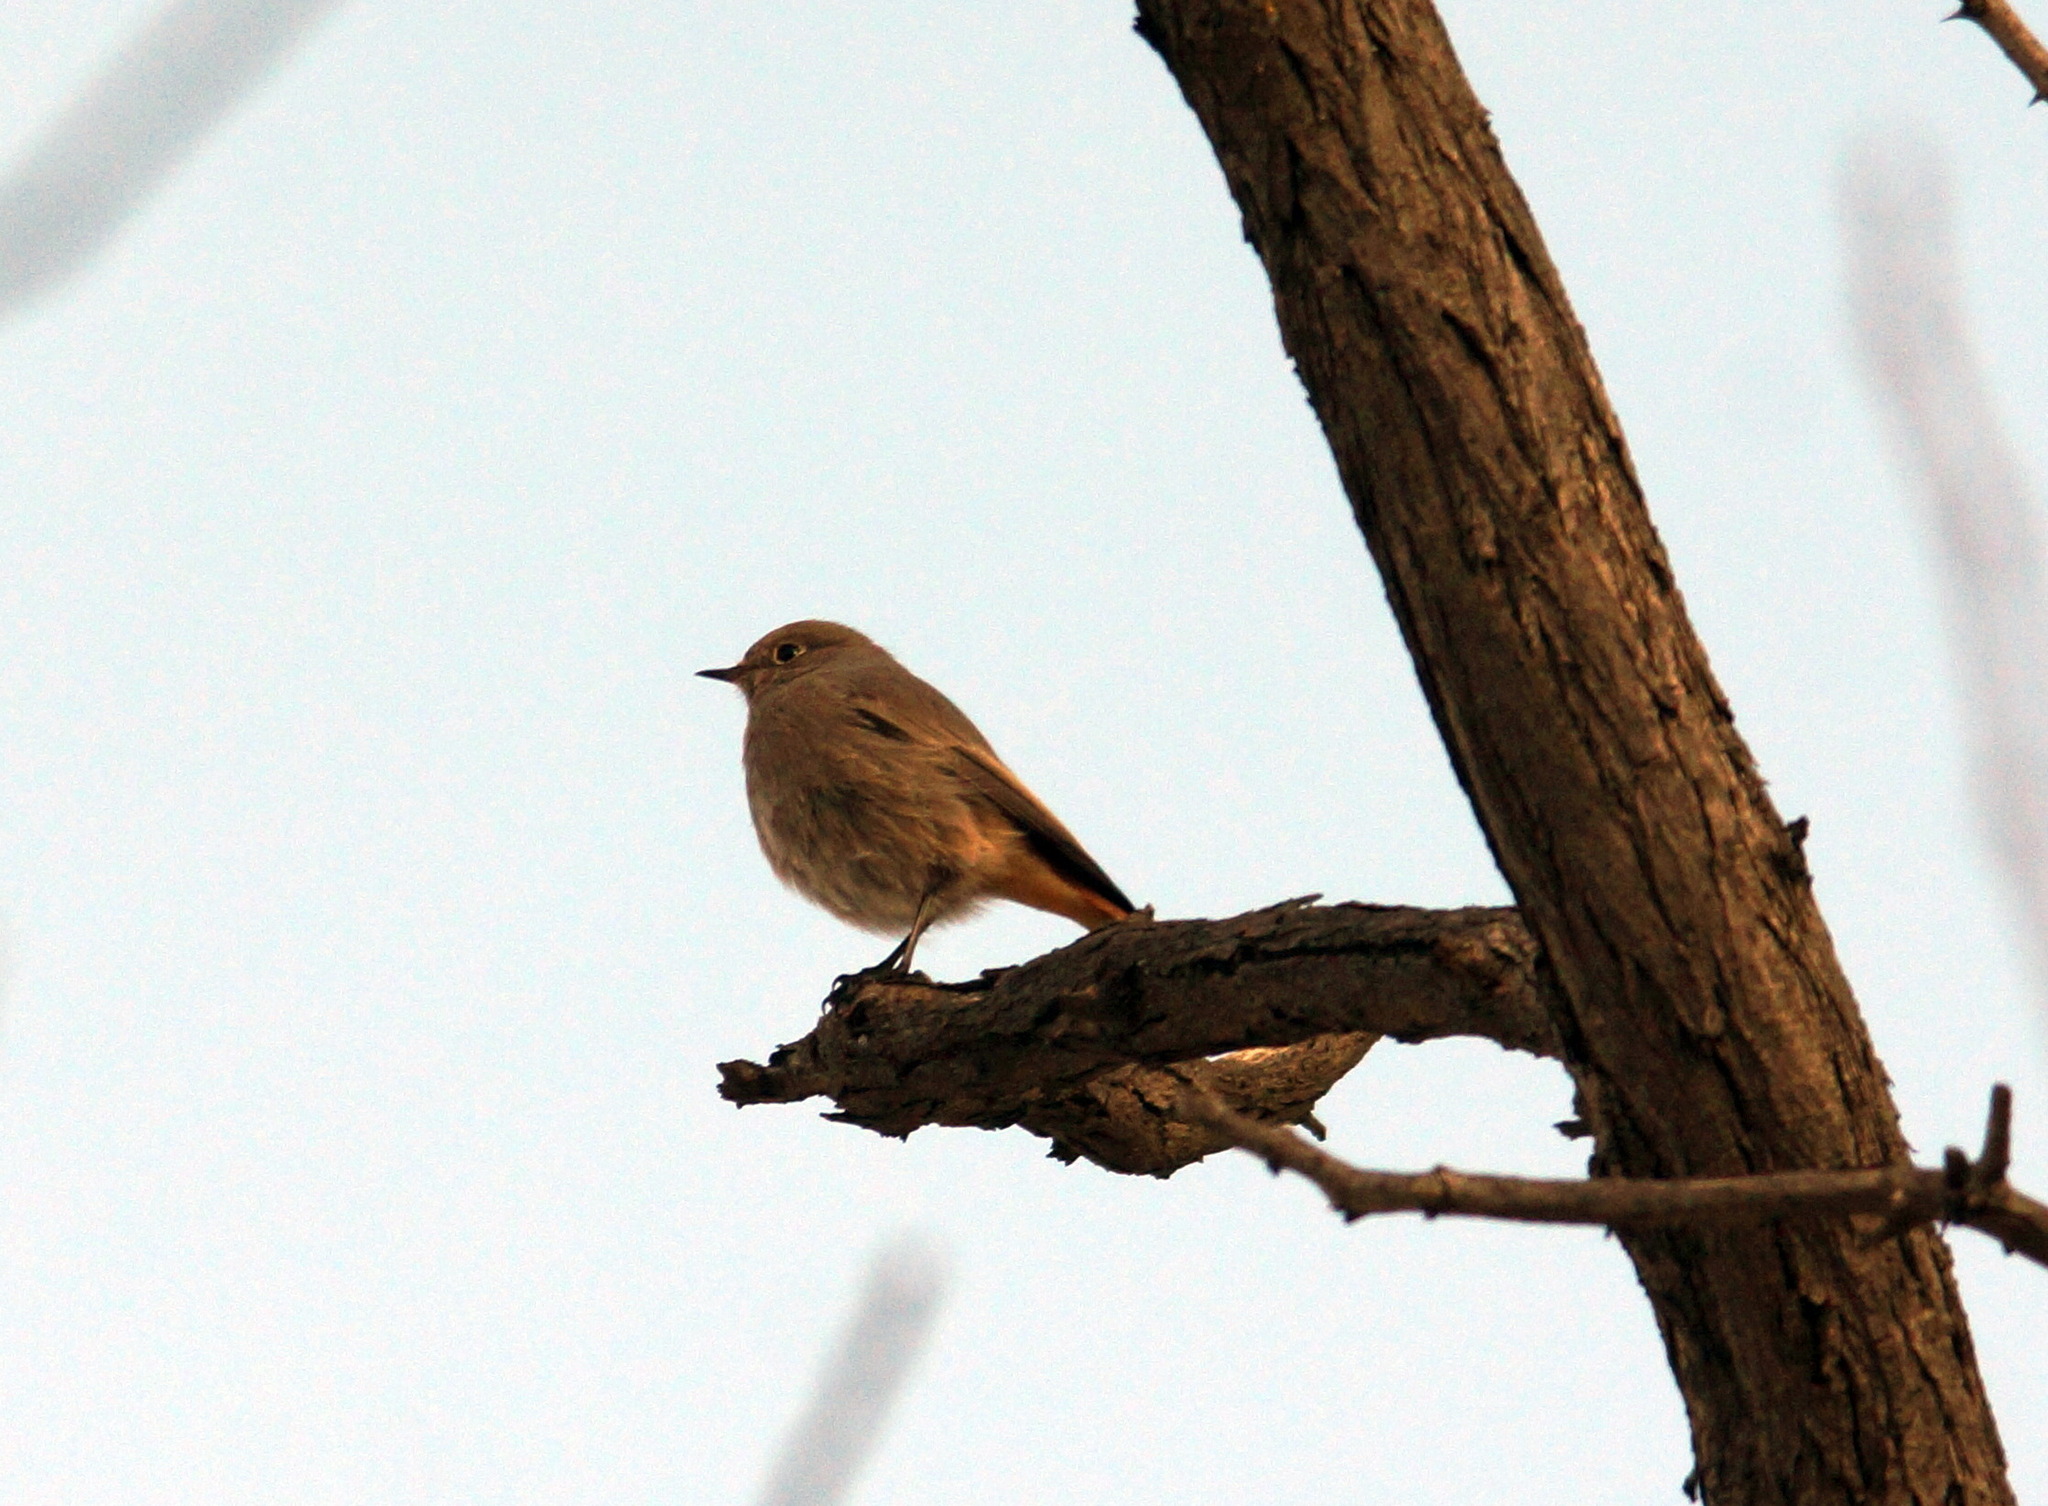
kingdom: Animalia
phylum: Chordata
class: Aves
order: Passeriformes
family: Muscicapidae
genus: Phoenicurus
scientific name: Phoenicurus ochruros
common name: Black redstart
